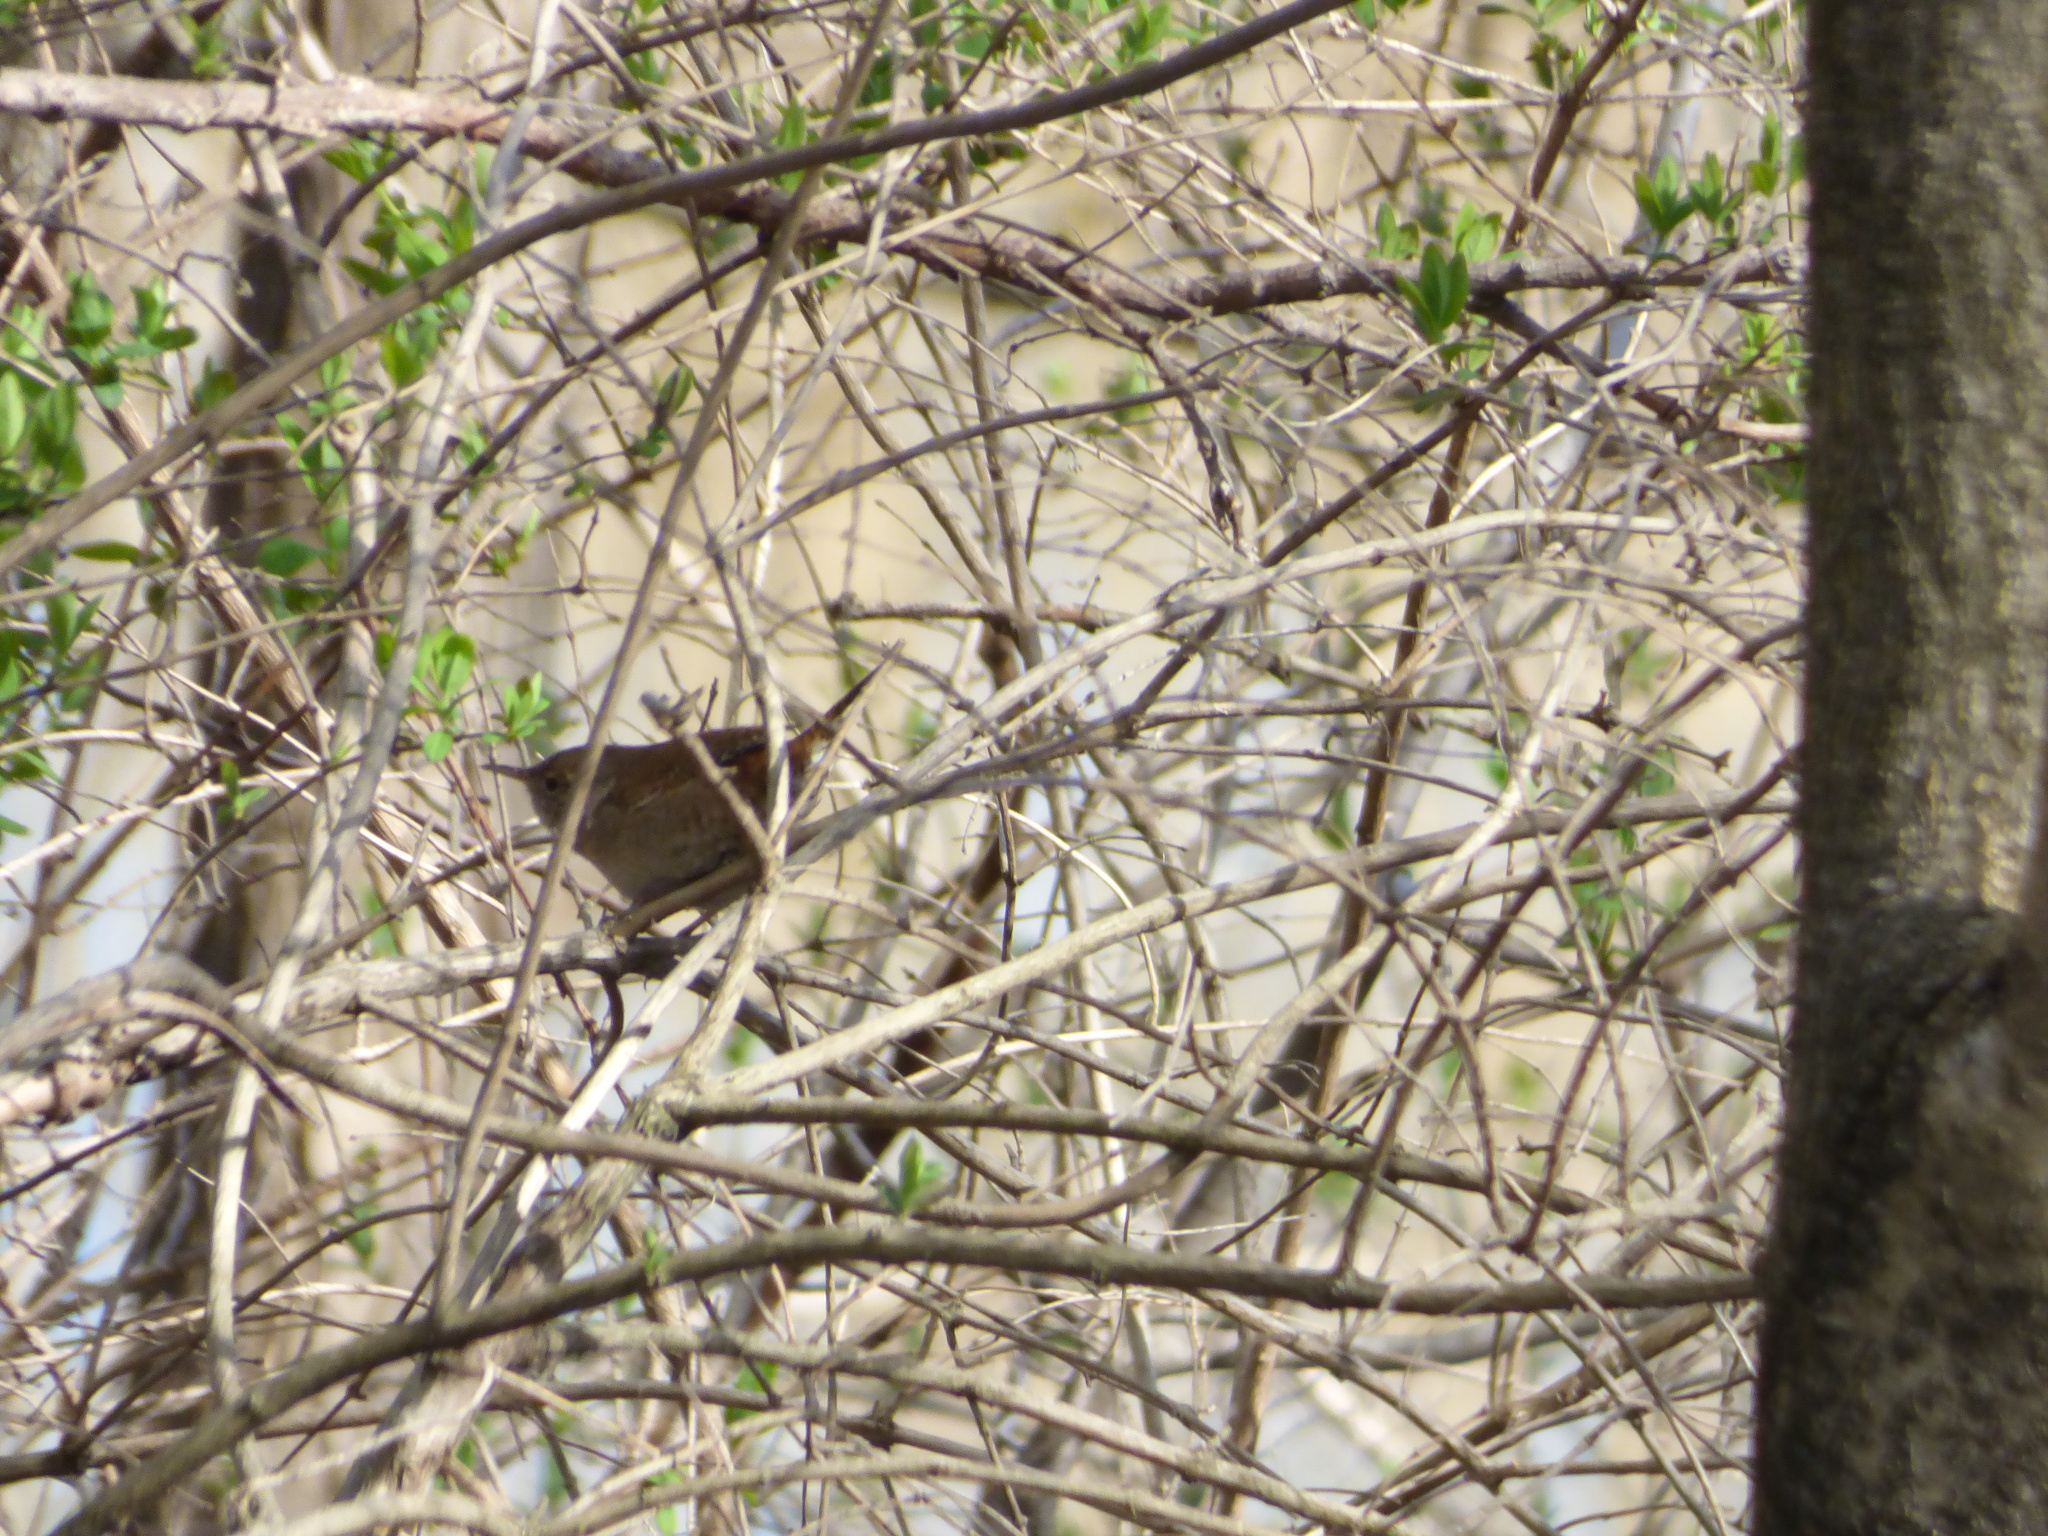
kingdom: Animalia
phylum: Chordata
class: Aves
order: Passeriformes
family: Troglodytidae
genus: Troglodytes
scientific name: Troglodytes aedon
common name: House wren
